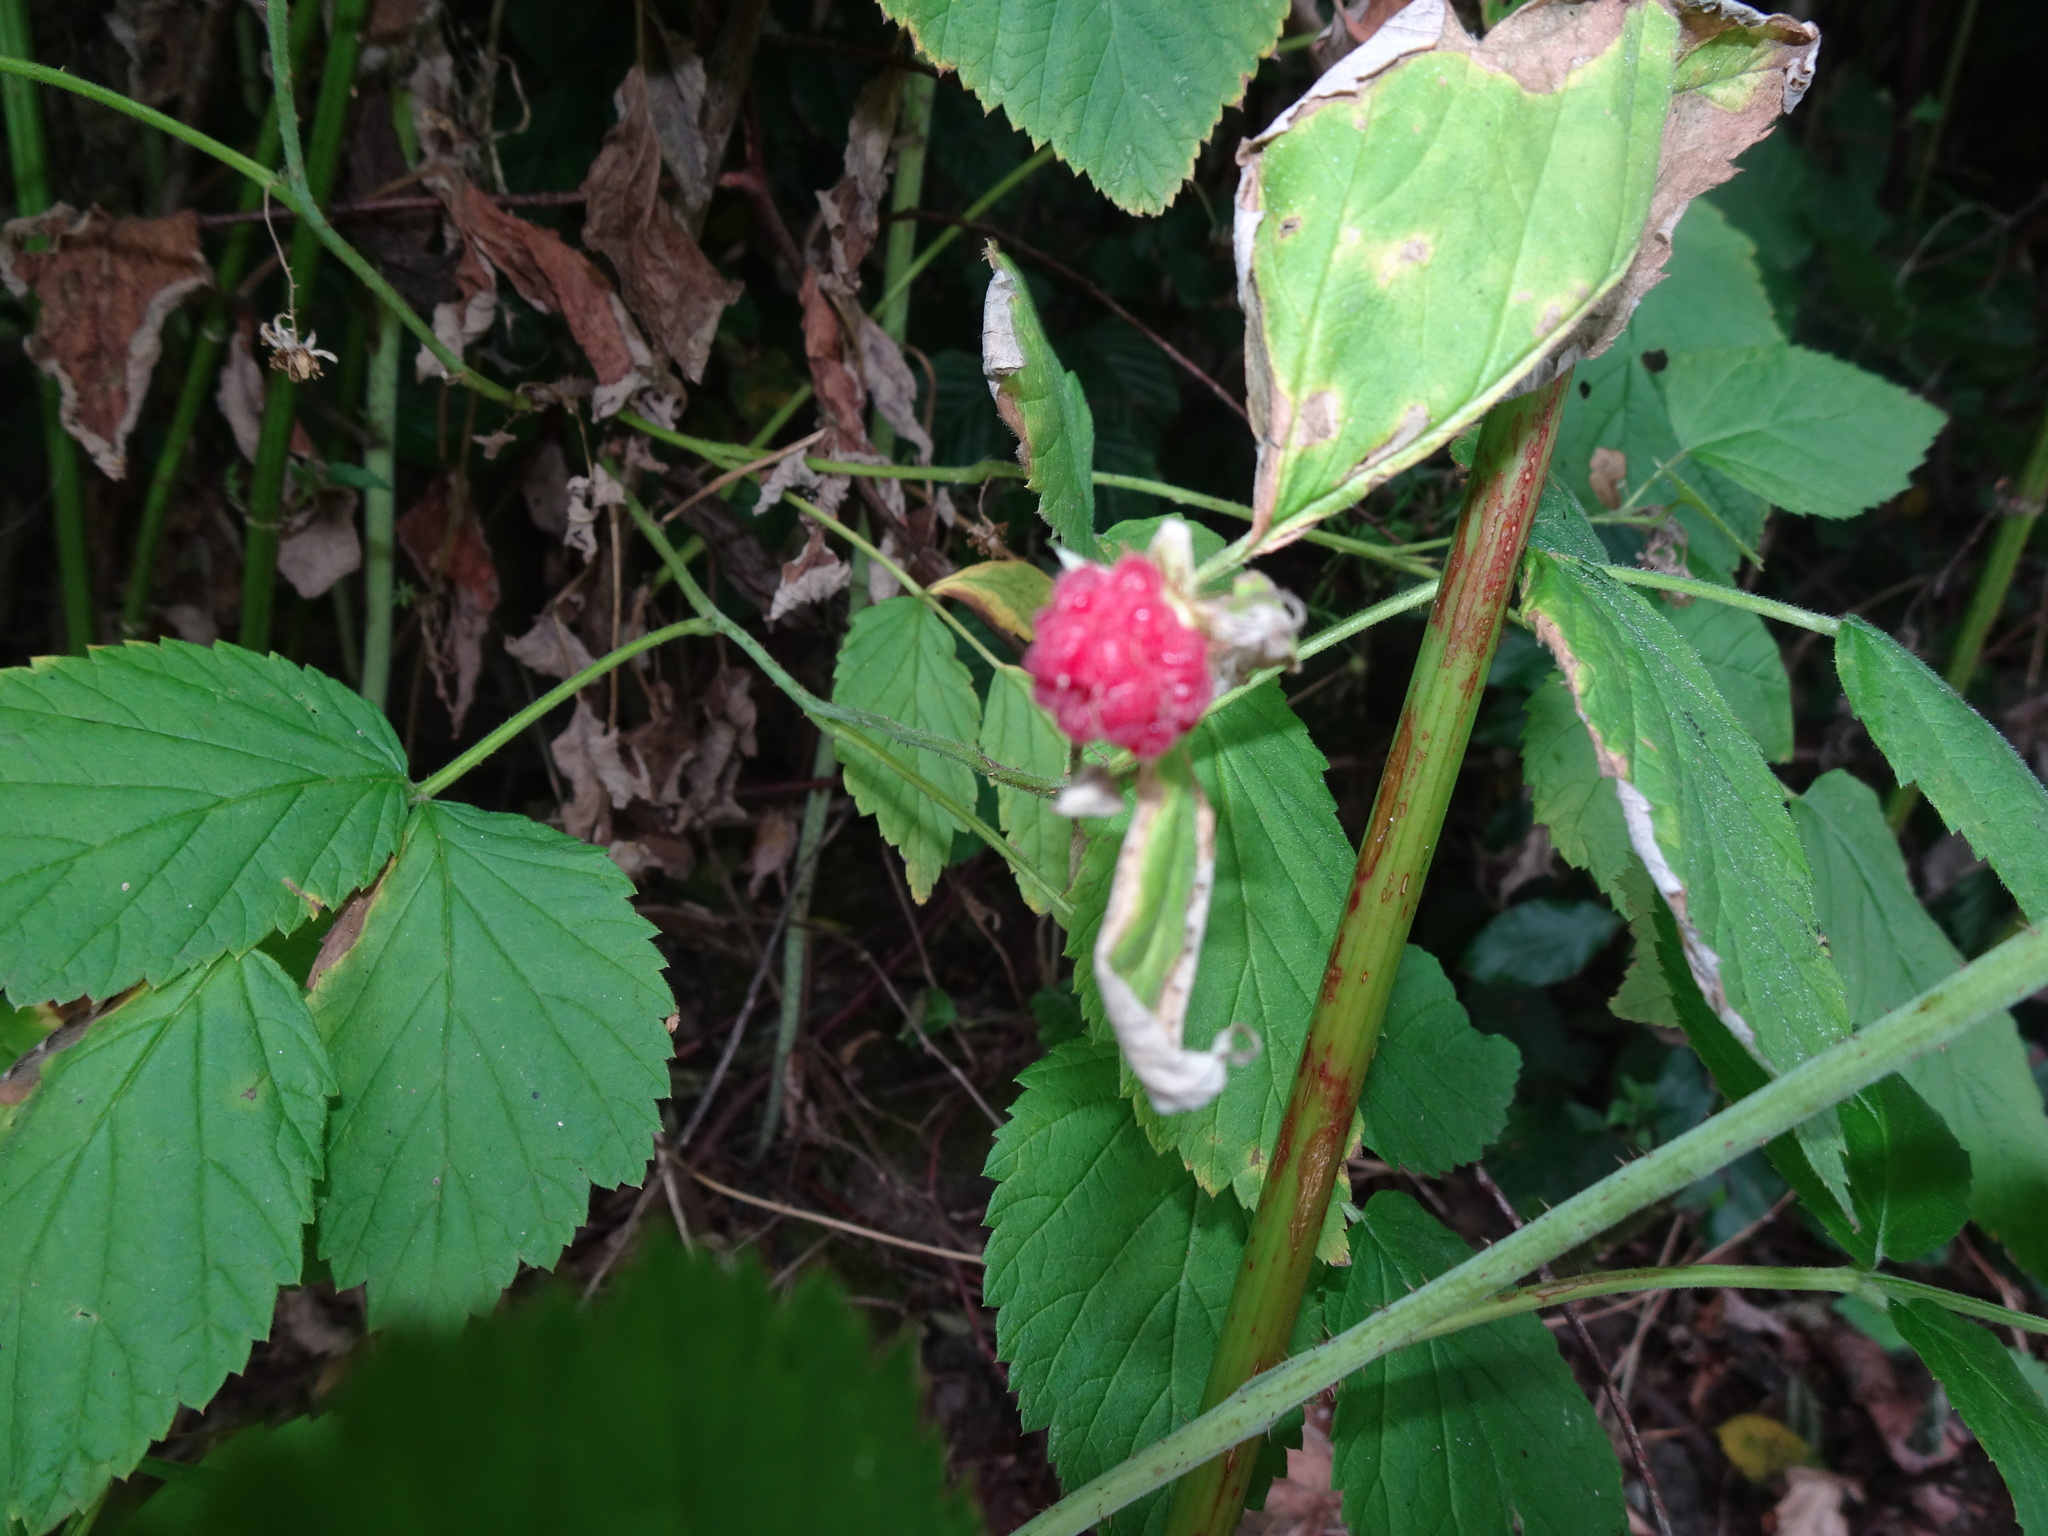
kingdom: Plantae
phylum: Tracheophyta
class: Magnoliopsida
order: Rosales
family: Rosaceae
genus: Rubus
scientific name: Rubus idaeus
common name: Raspberry
